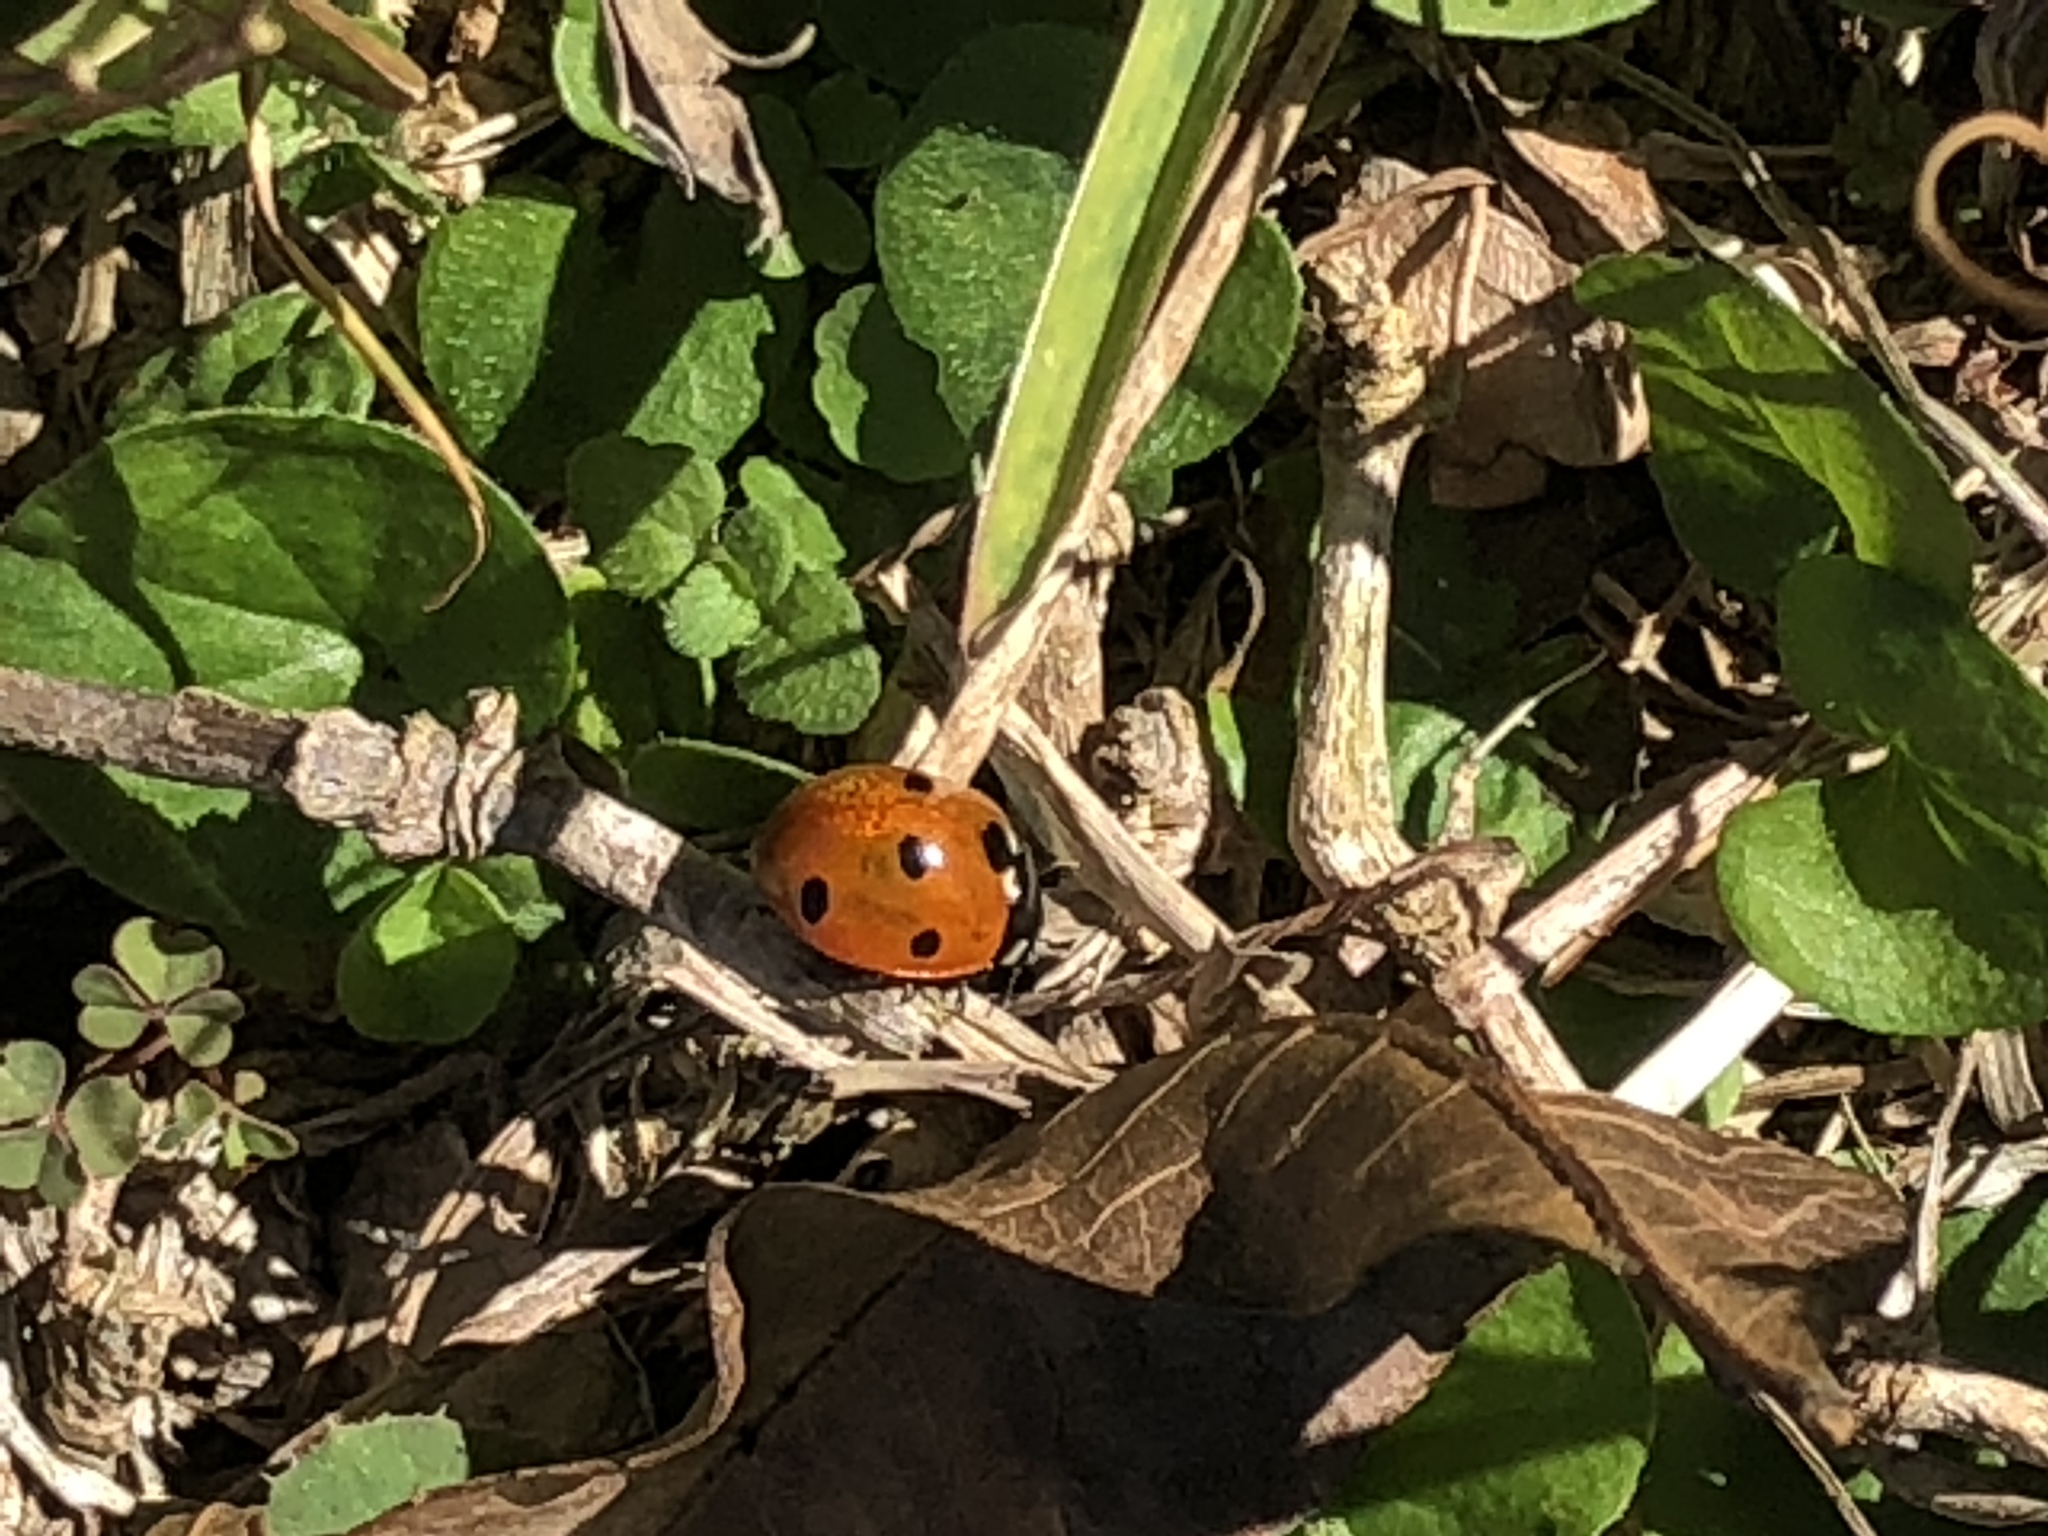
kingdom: Animalia
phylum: Arthropoda
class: Insecta
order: Coleoptera
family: Coccinellidae
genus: Coccinella
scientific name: Coccinella septempunctata
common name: Sevenspotted lady beetle
